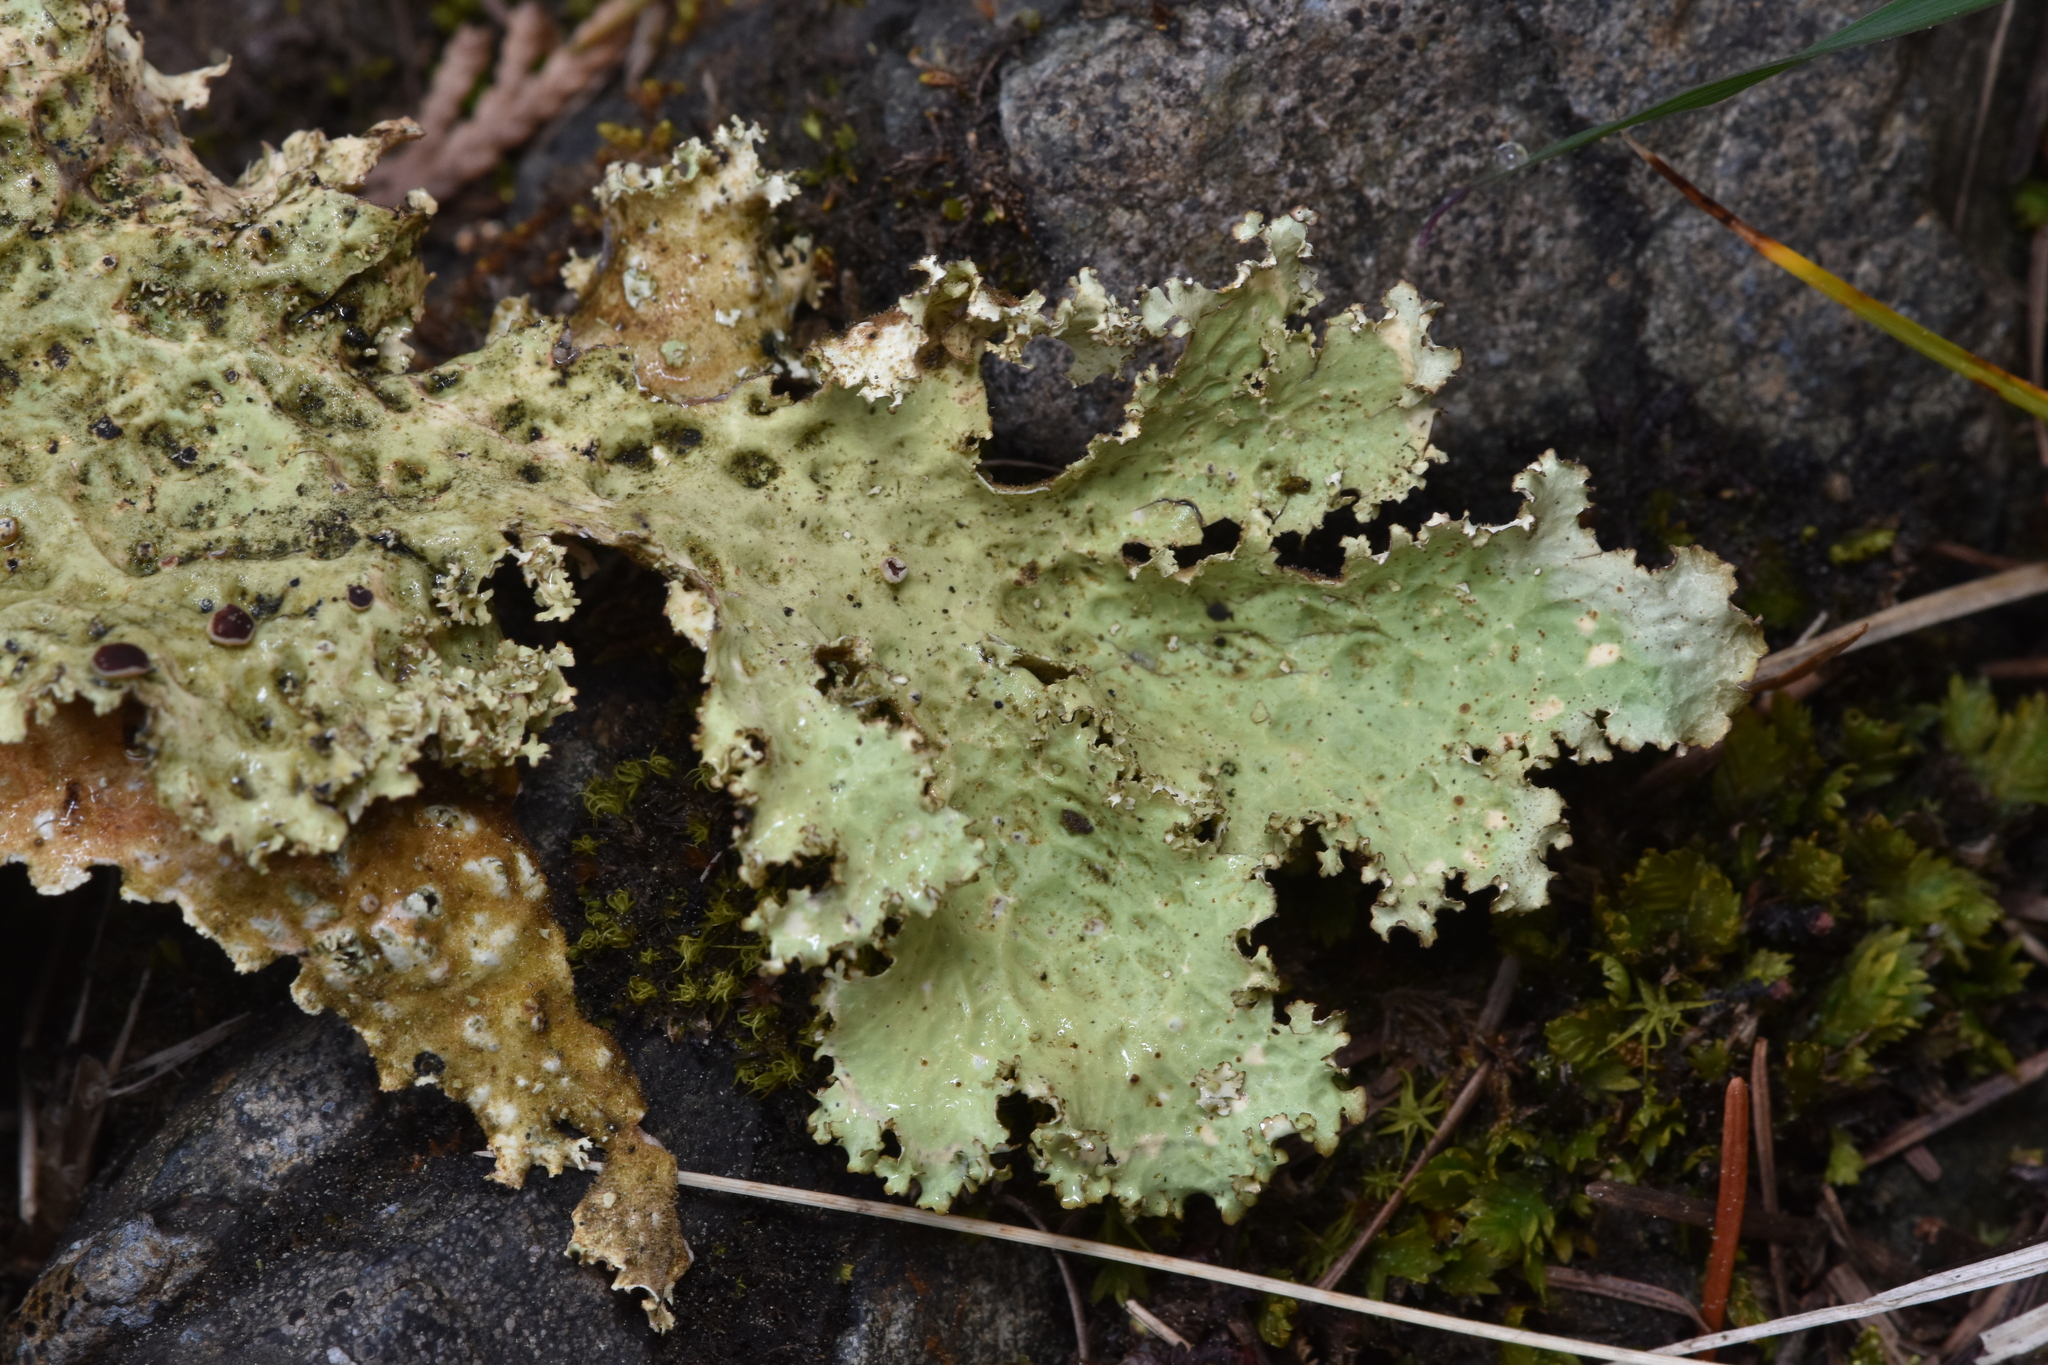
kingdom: Fungi
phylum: Ascomycota
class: Lecanoromycetes
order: Peltigerales
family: Lobariaceae
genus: Lobaria
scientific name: Lobaria oregana
